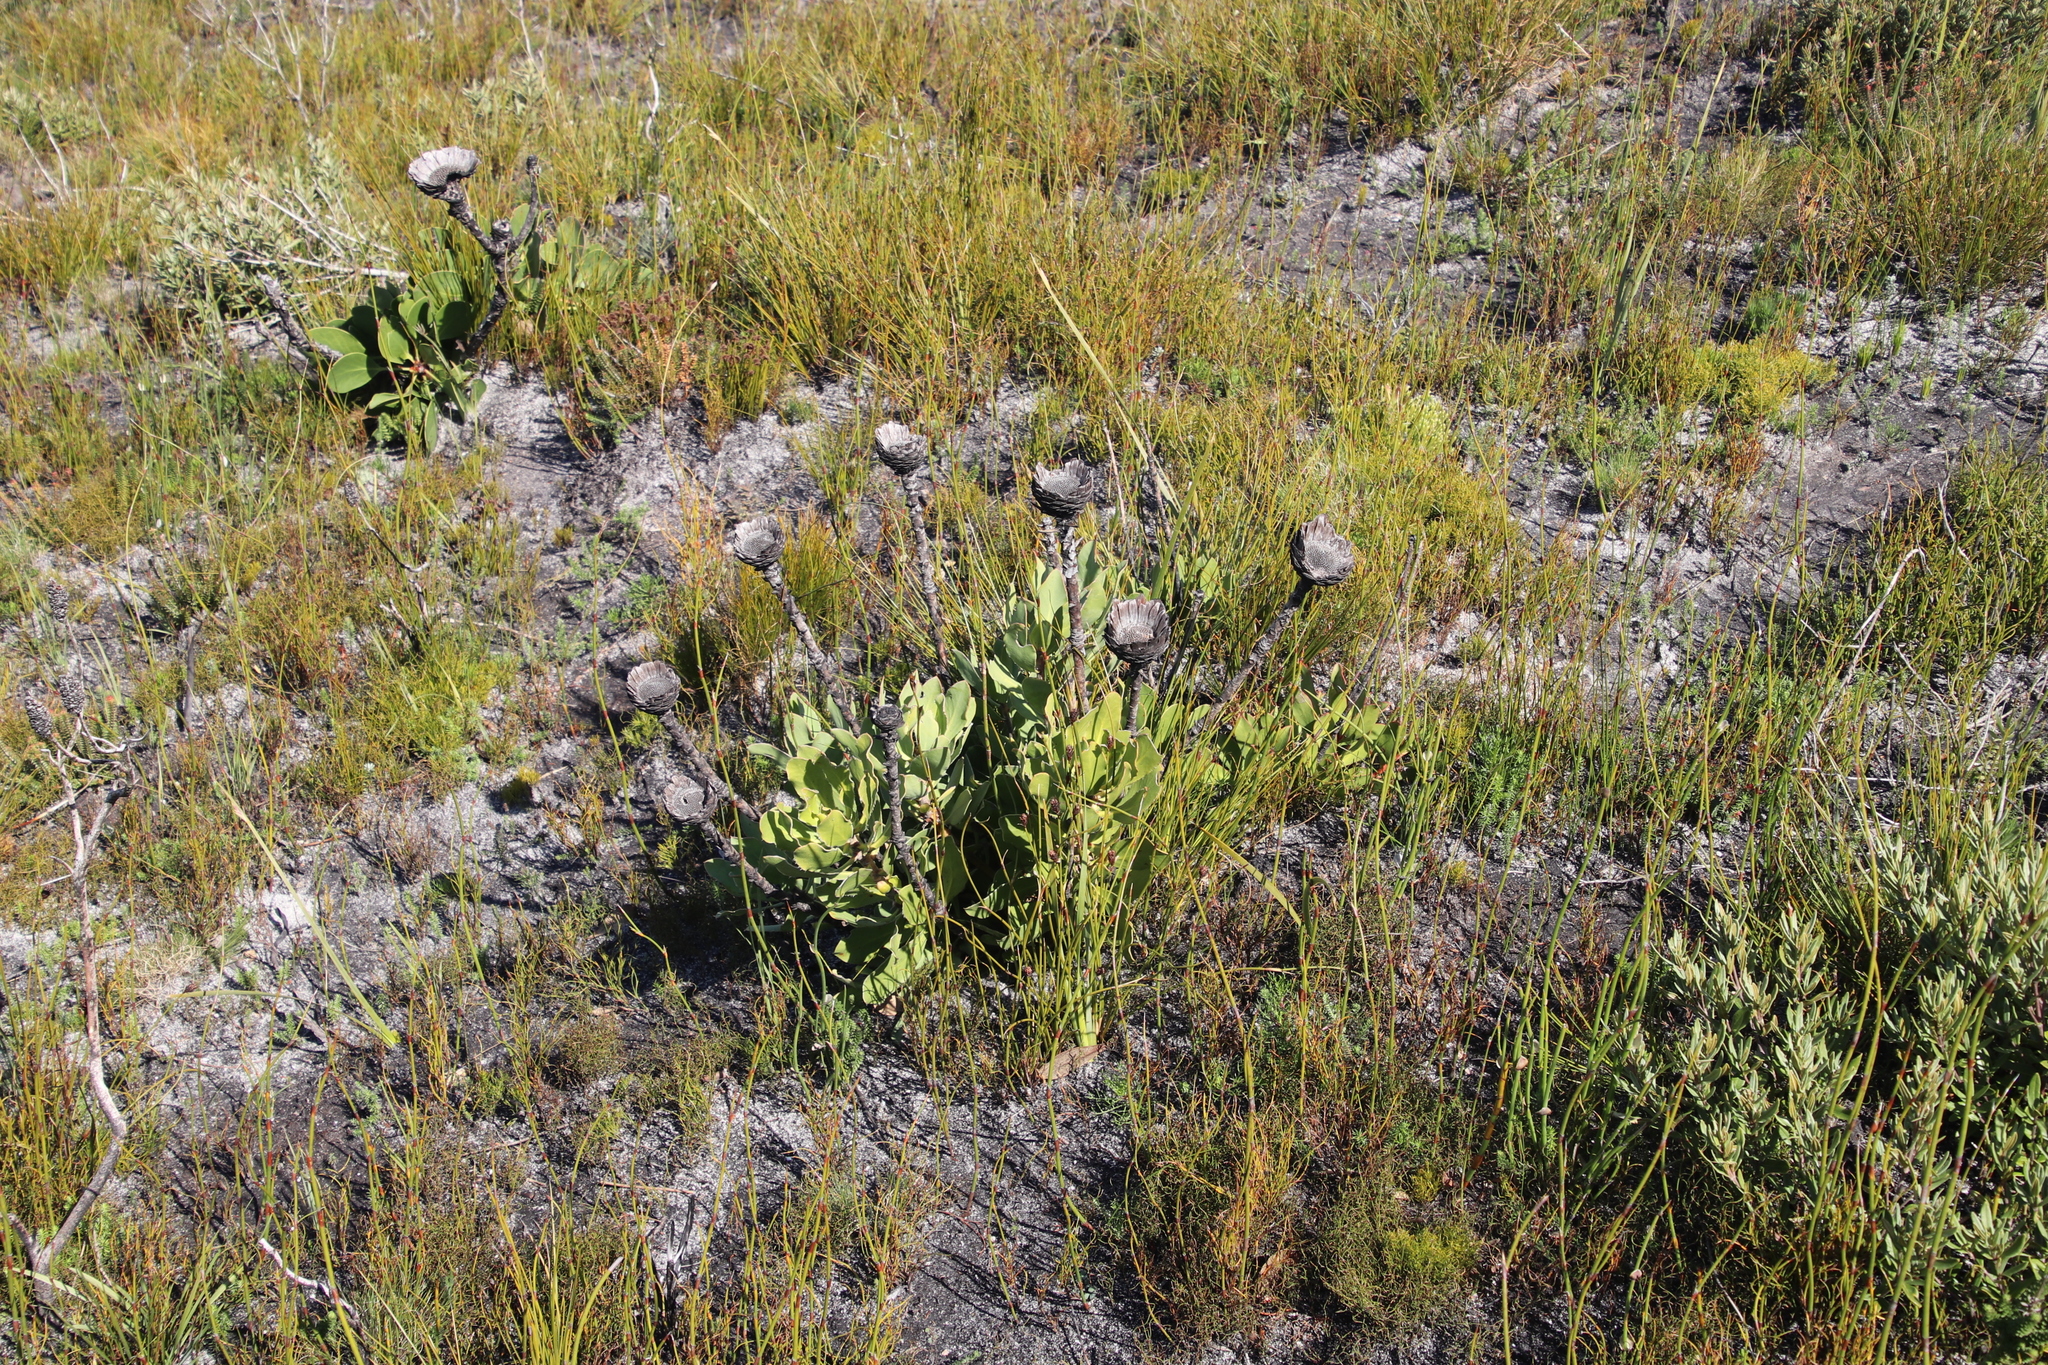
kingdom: Plantae
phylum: Tracheophyta
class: Magnoliopsida
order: Proteales
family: Proteaceae
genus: Protea
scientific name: Protea speciosa
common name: Brown-beard sugarbush
